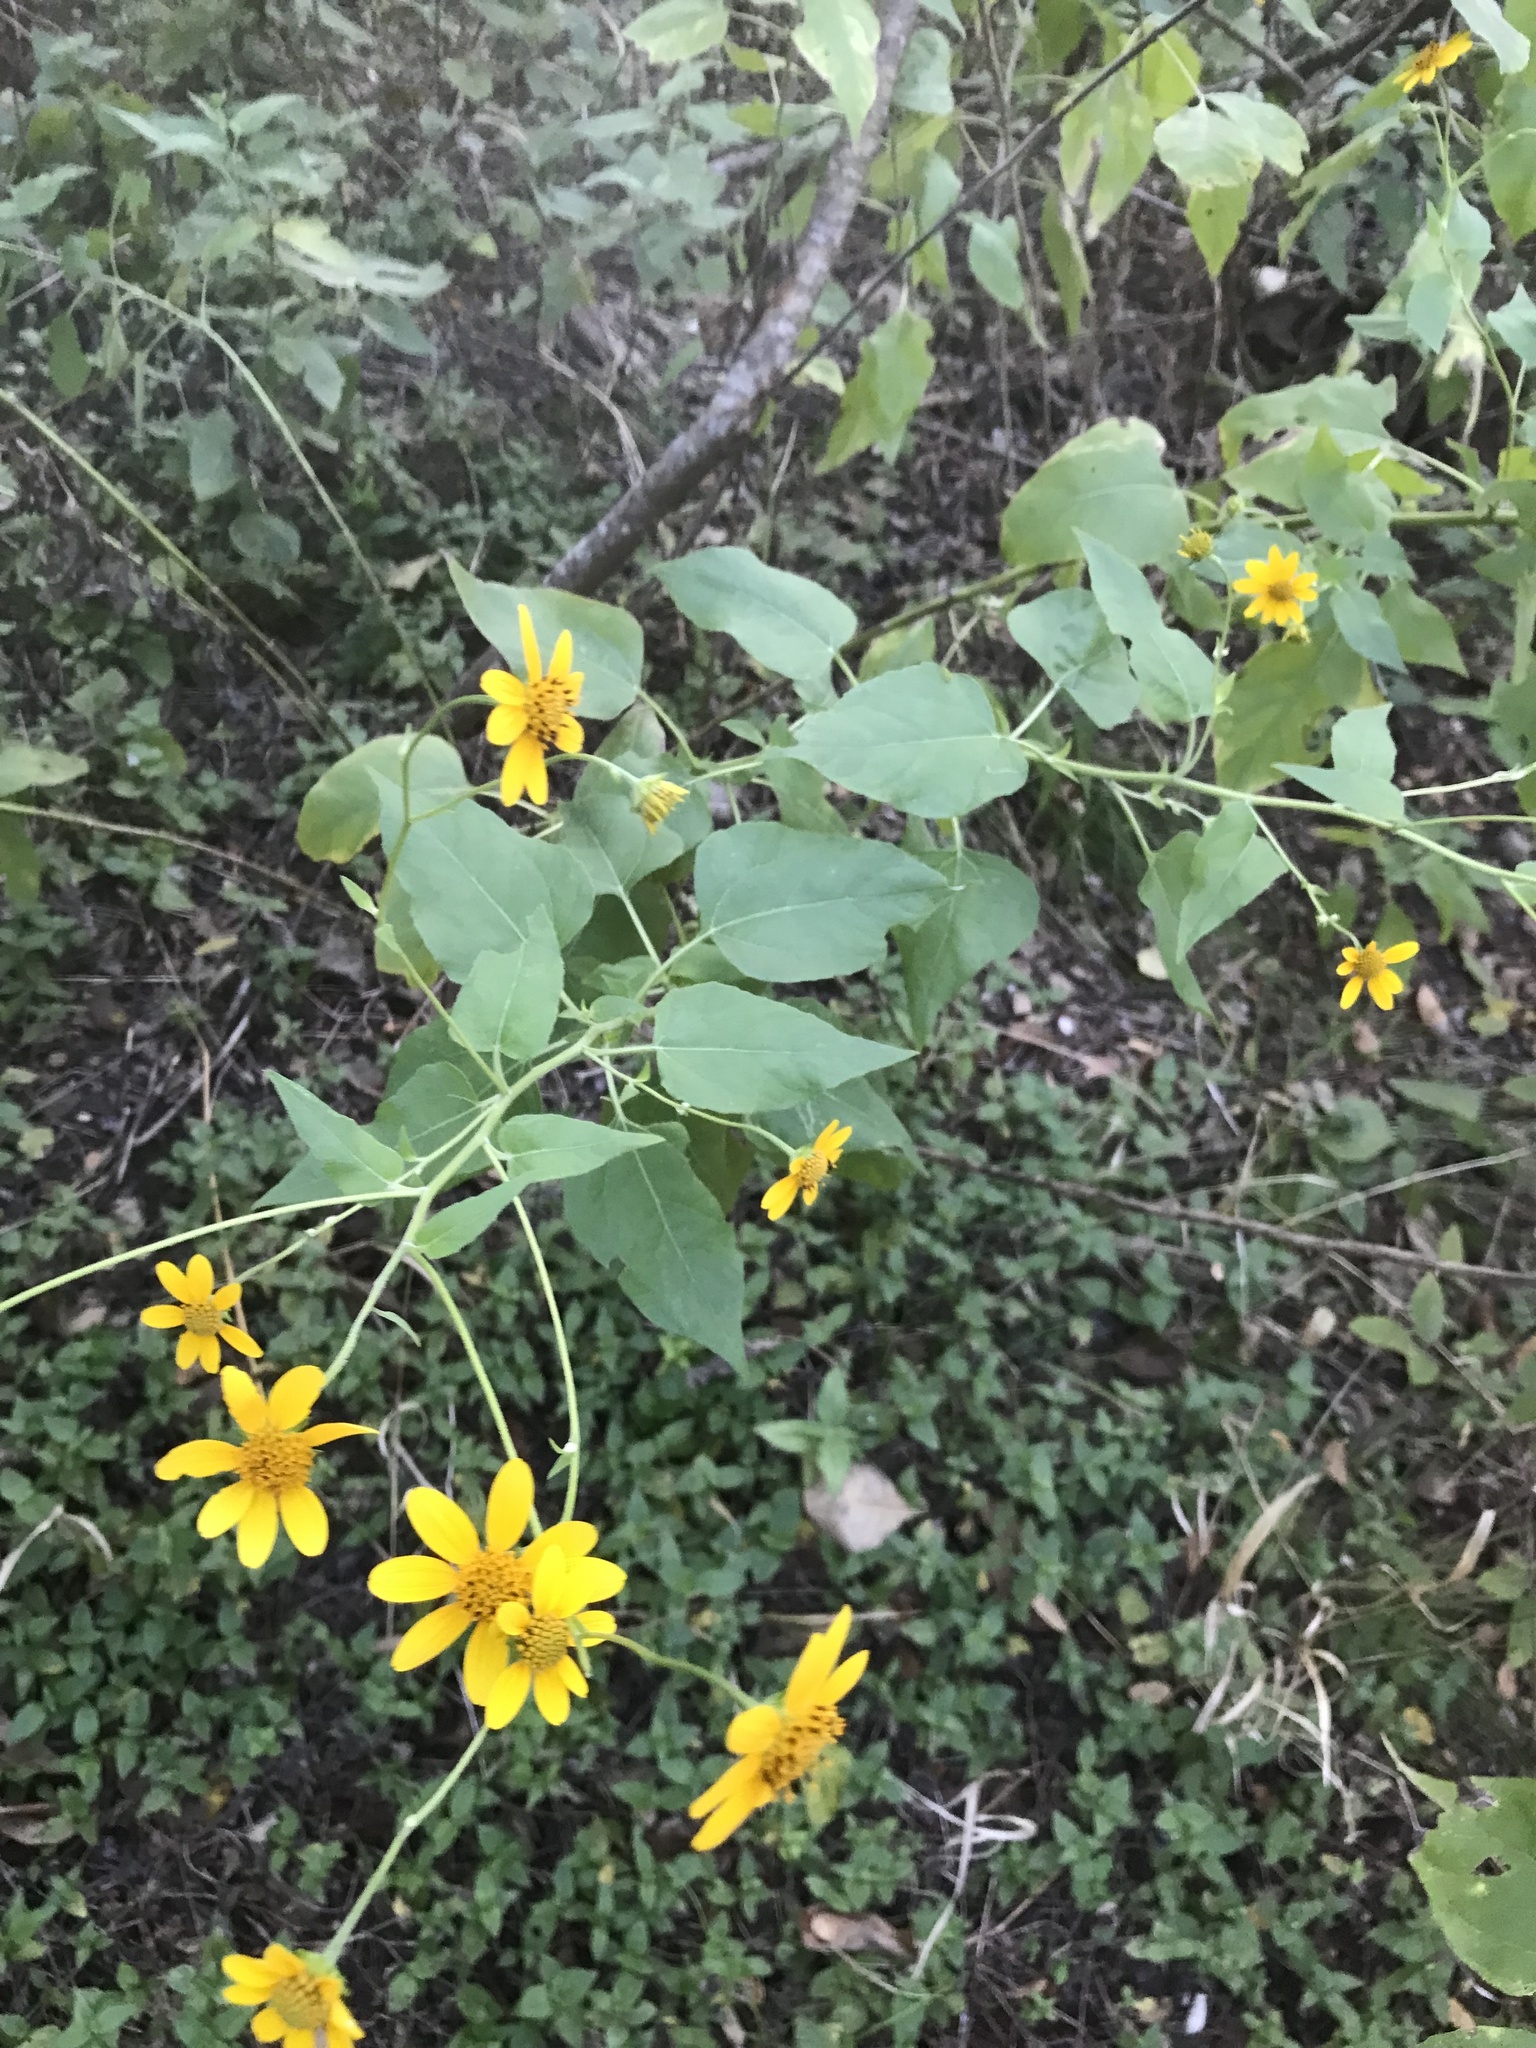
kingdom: Plantae
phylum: Tracheophyta
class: Magnoliopsida
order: Asterales
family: Asteraceae
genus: Viguiera
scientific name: Viguiera dentata
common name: Toothleaf
